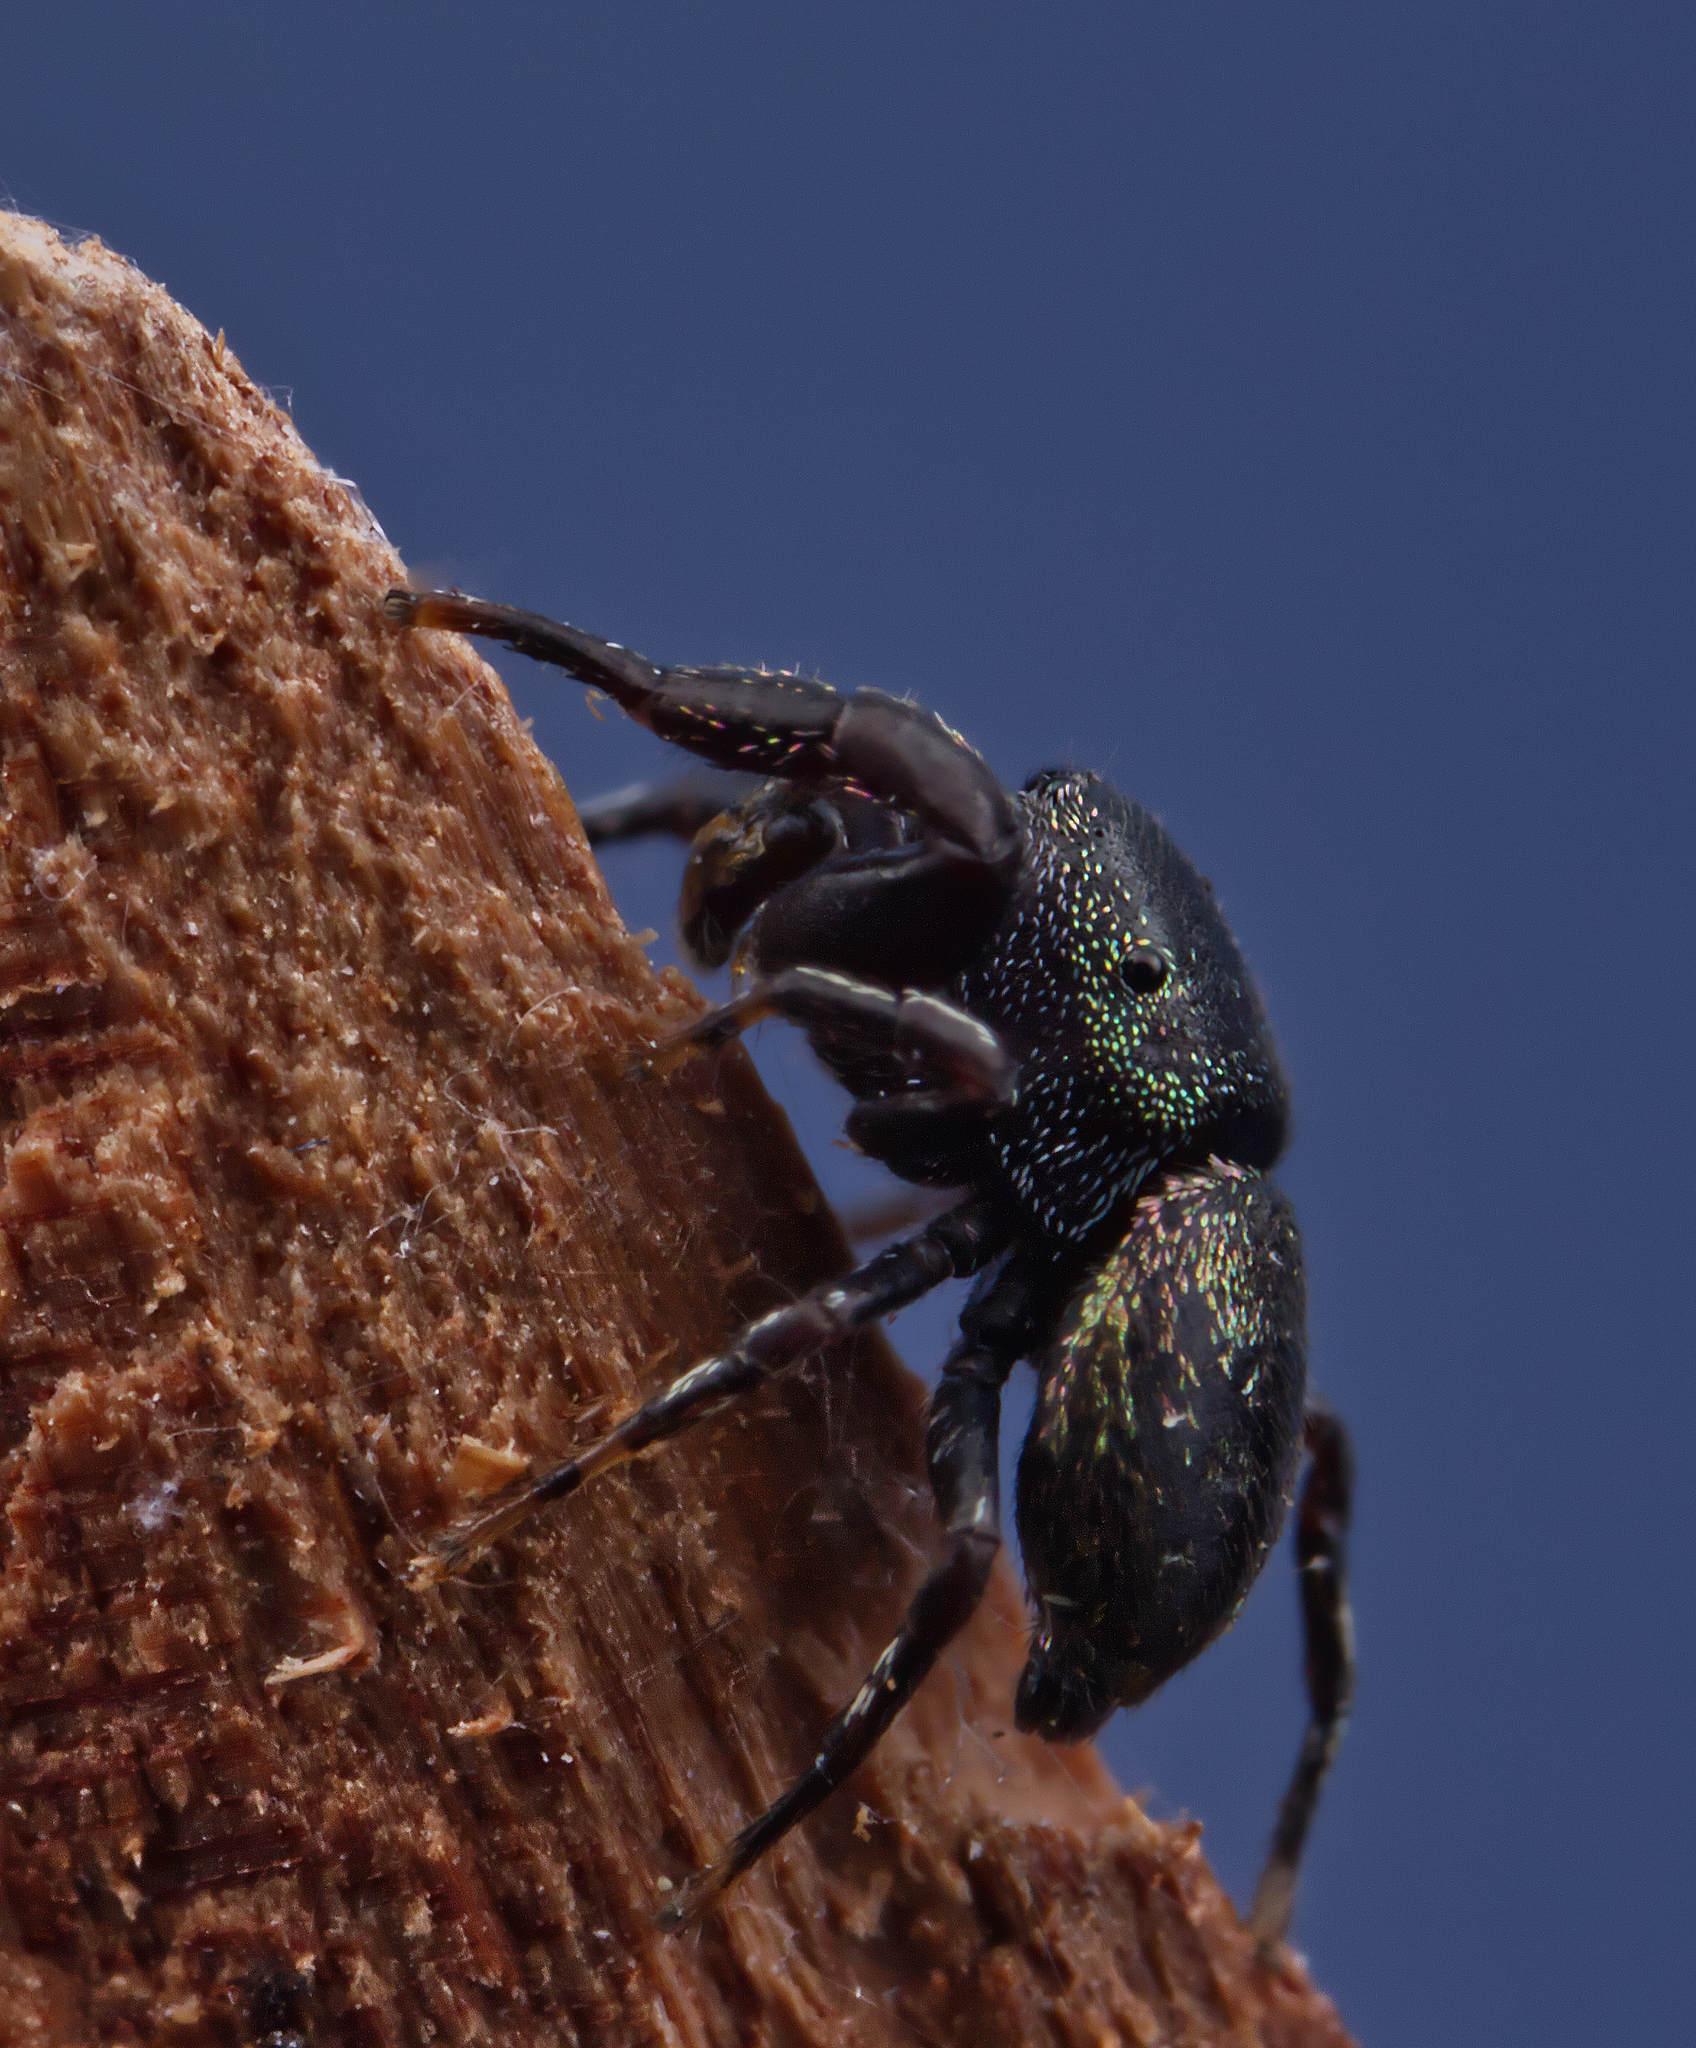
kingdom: Animalia
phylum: Arthropoda
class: Arachnida
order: Araneae
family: Salticidae
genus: Sassacus
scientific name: Sassacus cyaneus
